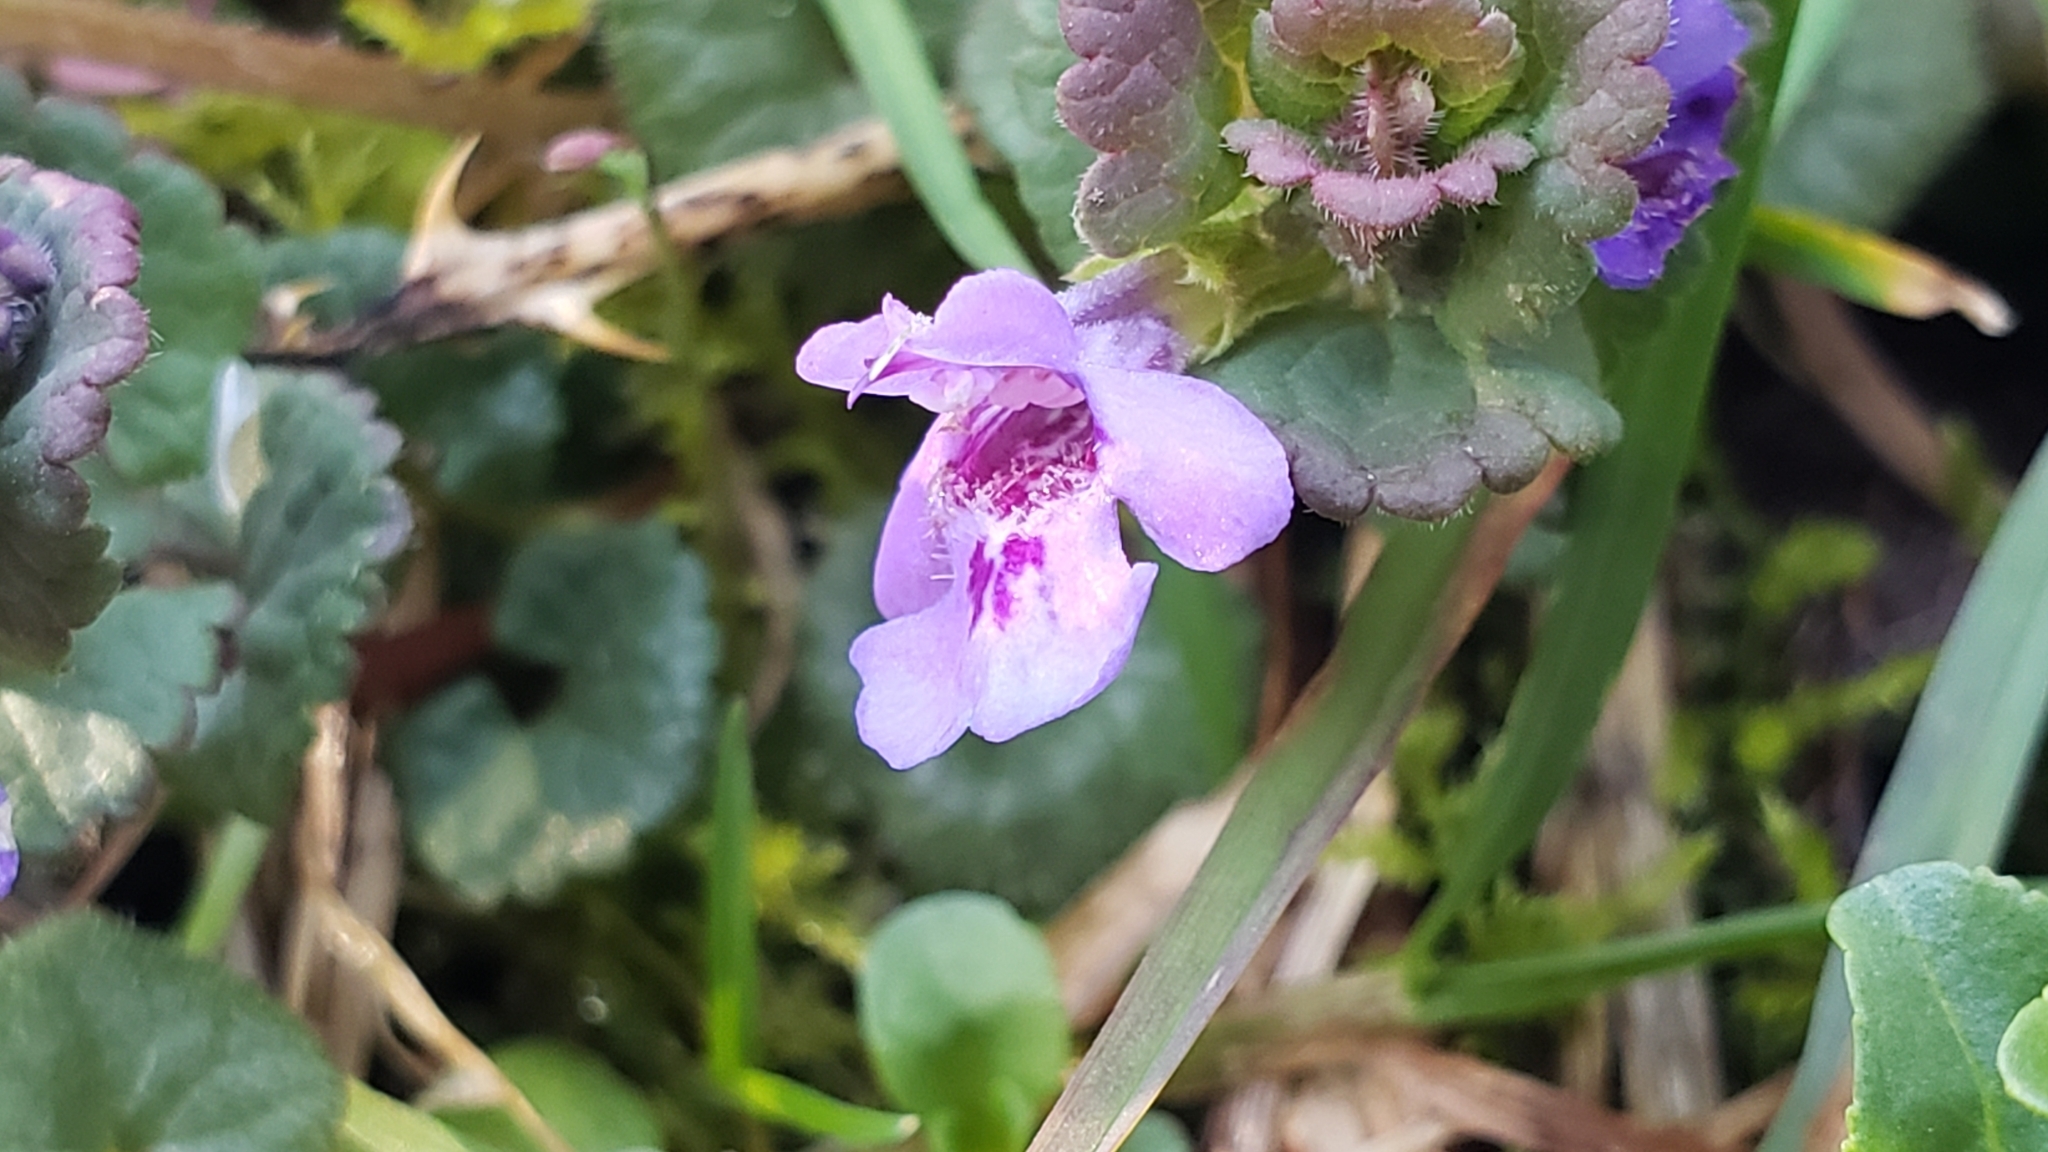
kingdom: Plantae
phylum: Tracheophyta
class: Magnoliopsida
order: Lamiales
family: Lamiaceae
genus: Glechoma
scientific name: Glechoma hederacea
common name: Ground ivy
